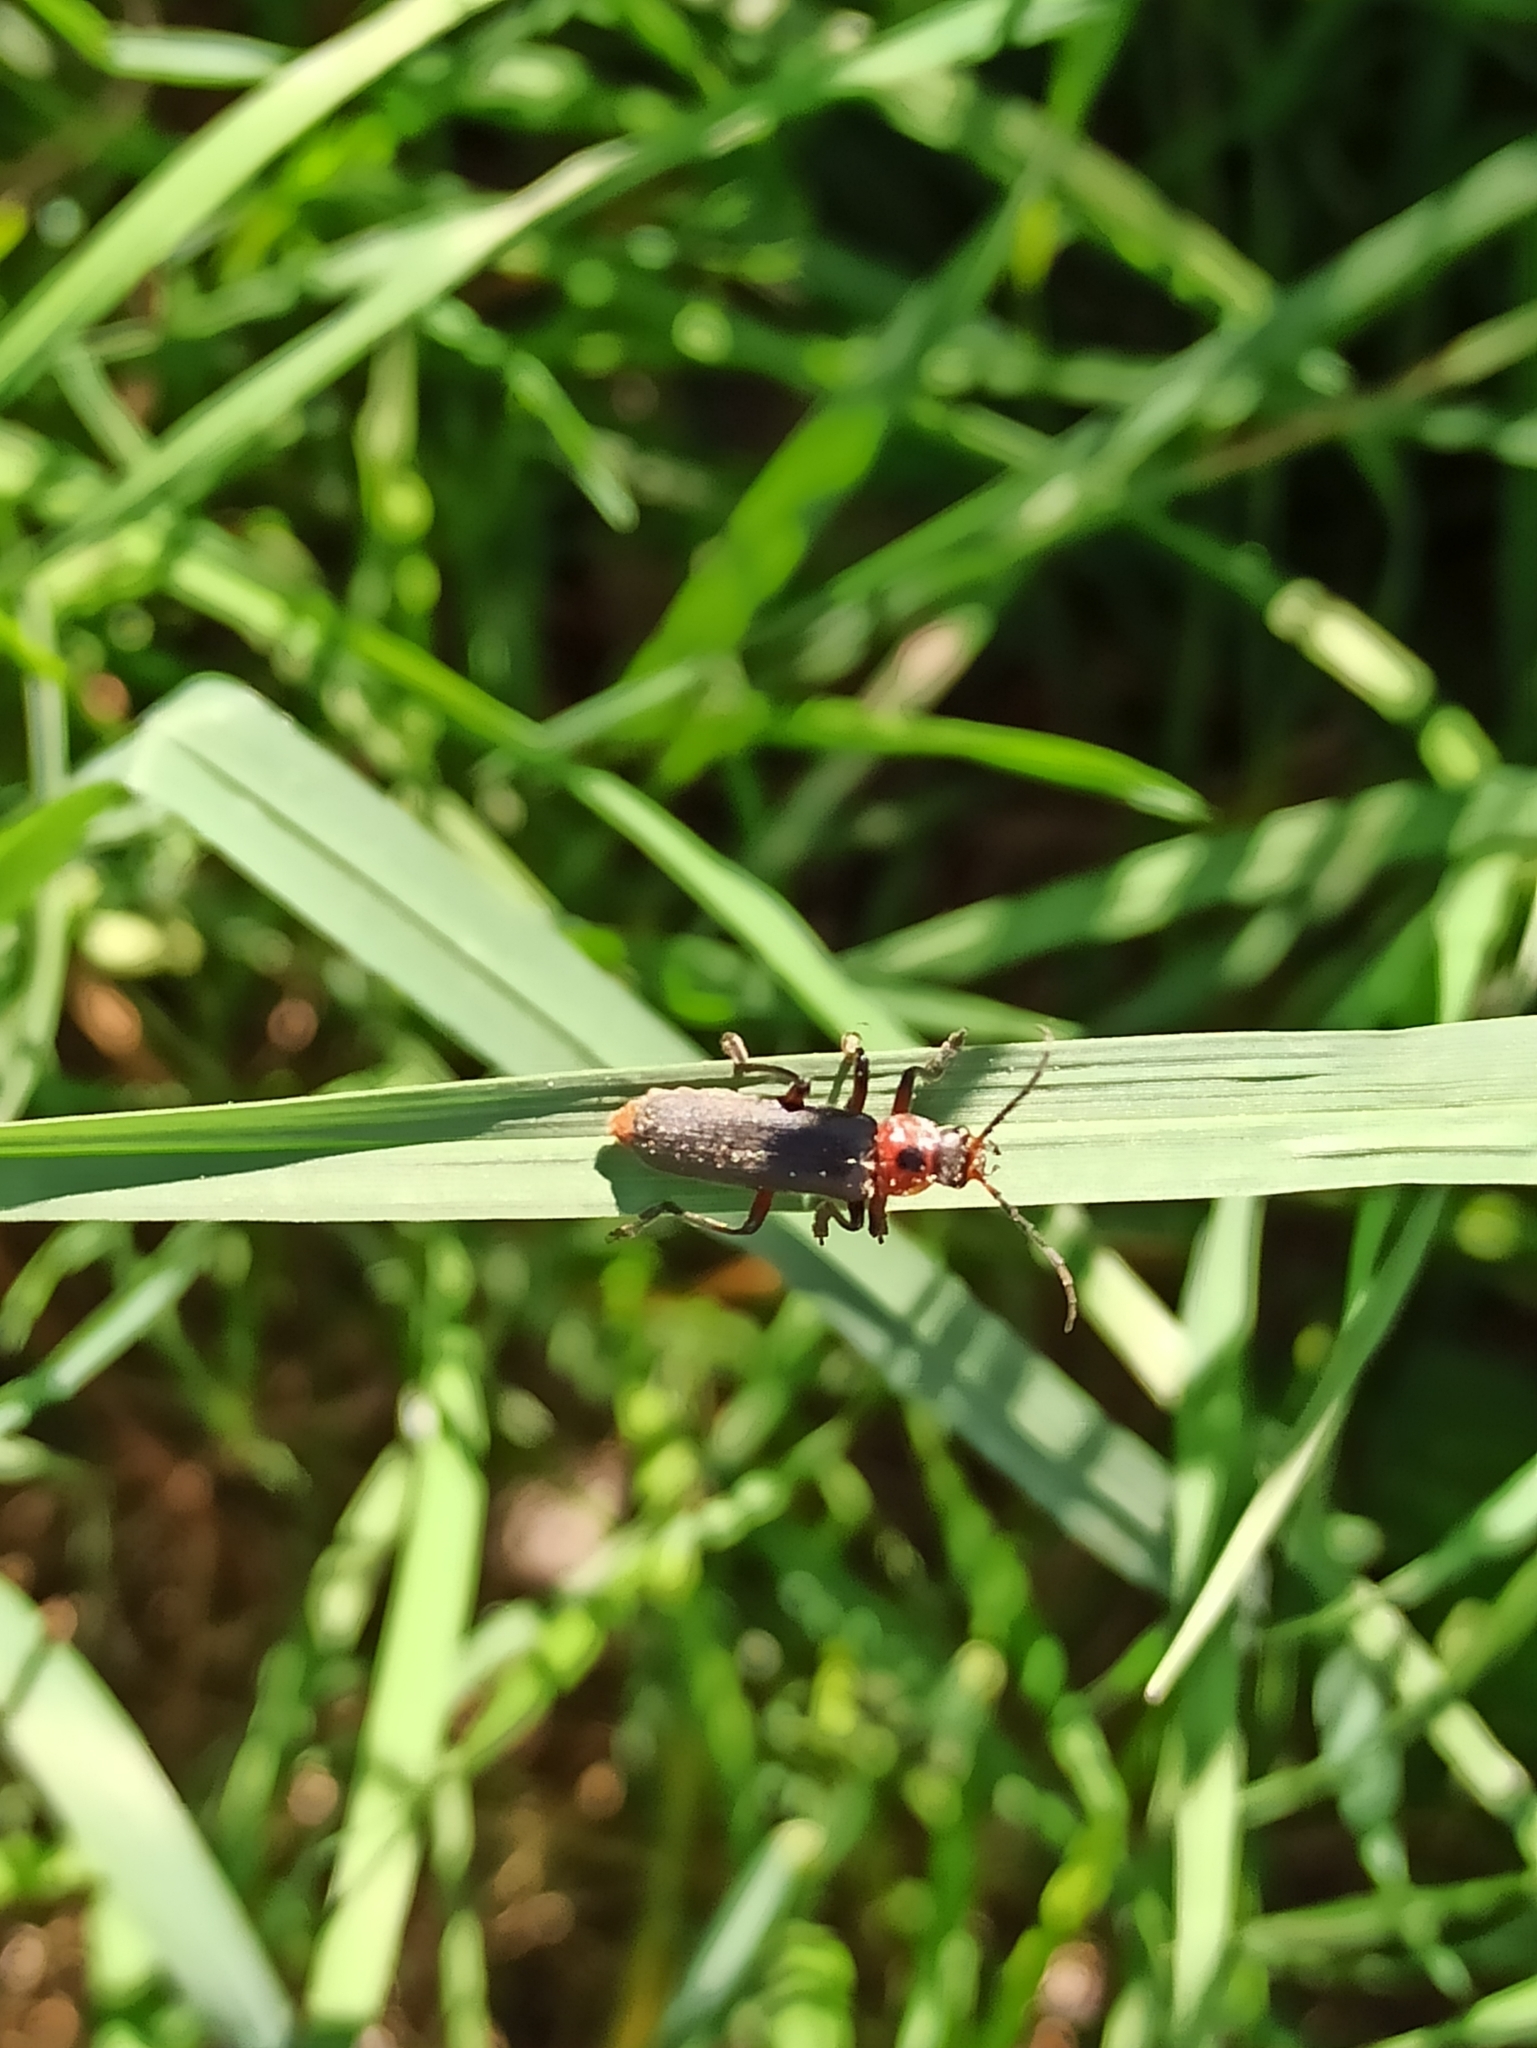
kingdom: Animalia
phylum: Arthropoda
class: Insecta
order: Coleoptera
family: Cantharidae
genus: Cantharis
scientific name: Cantharis rustica
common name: Soldier beetle
